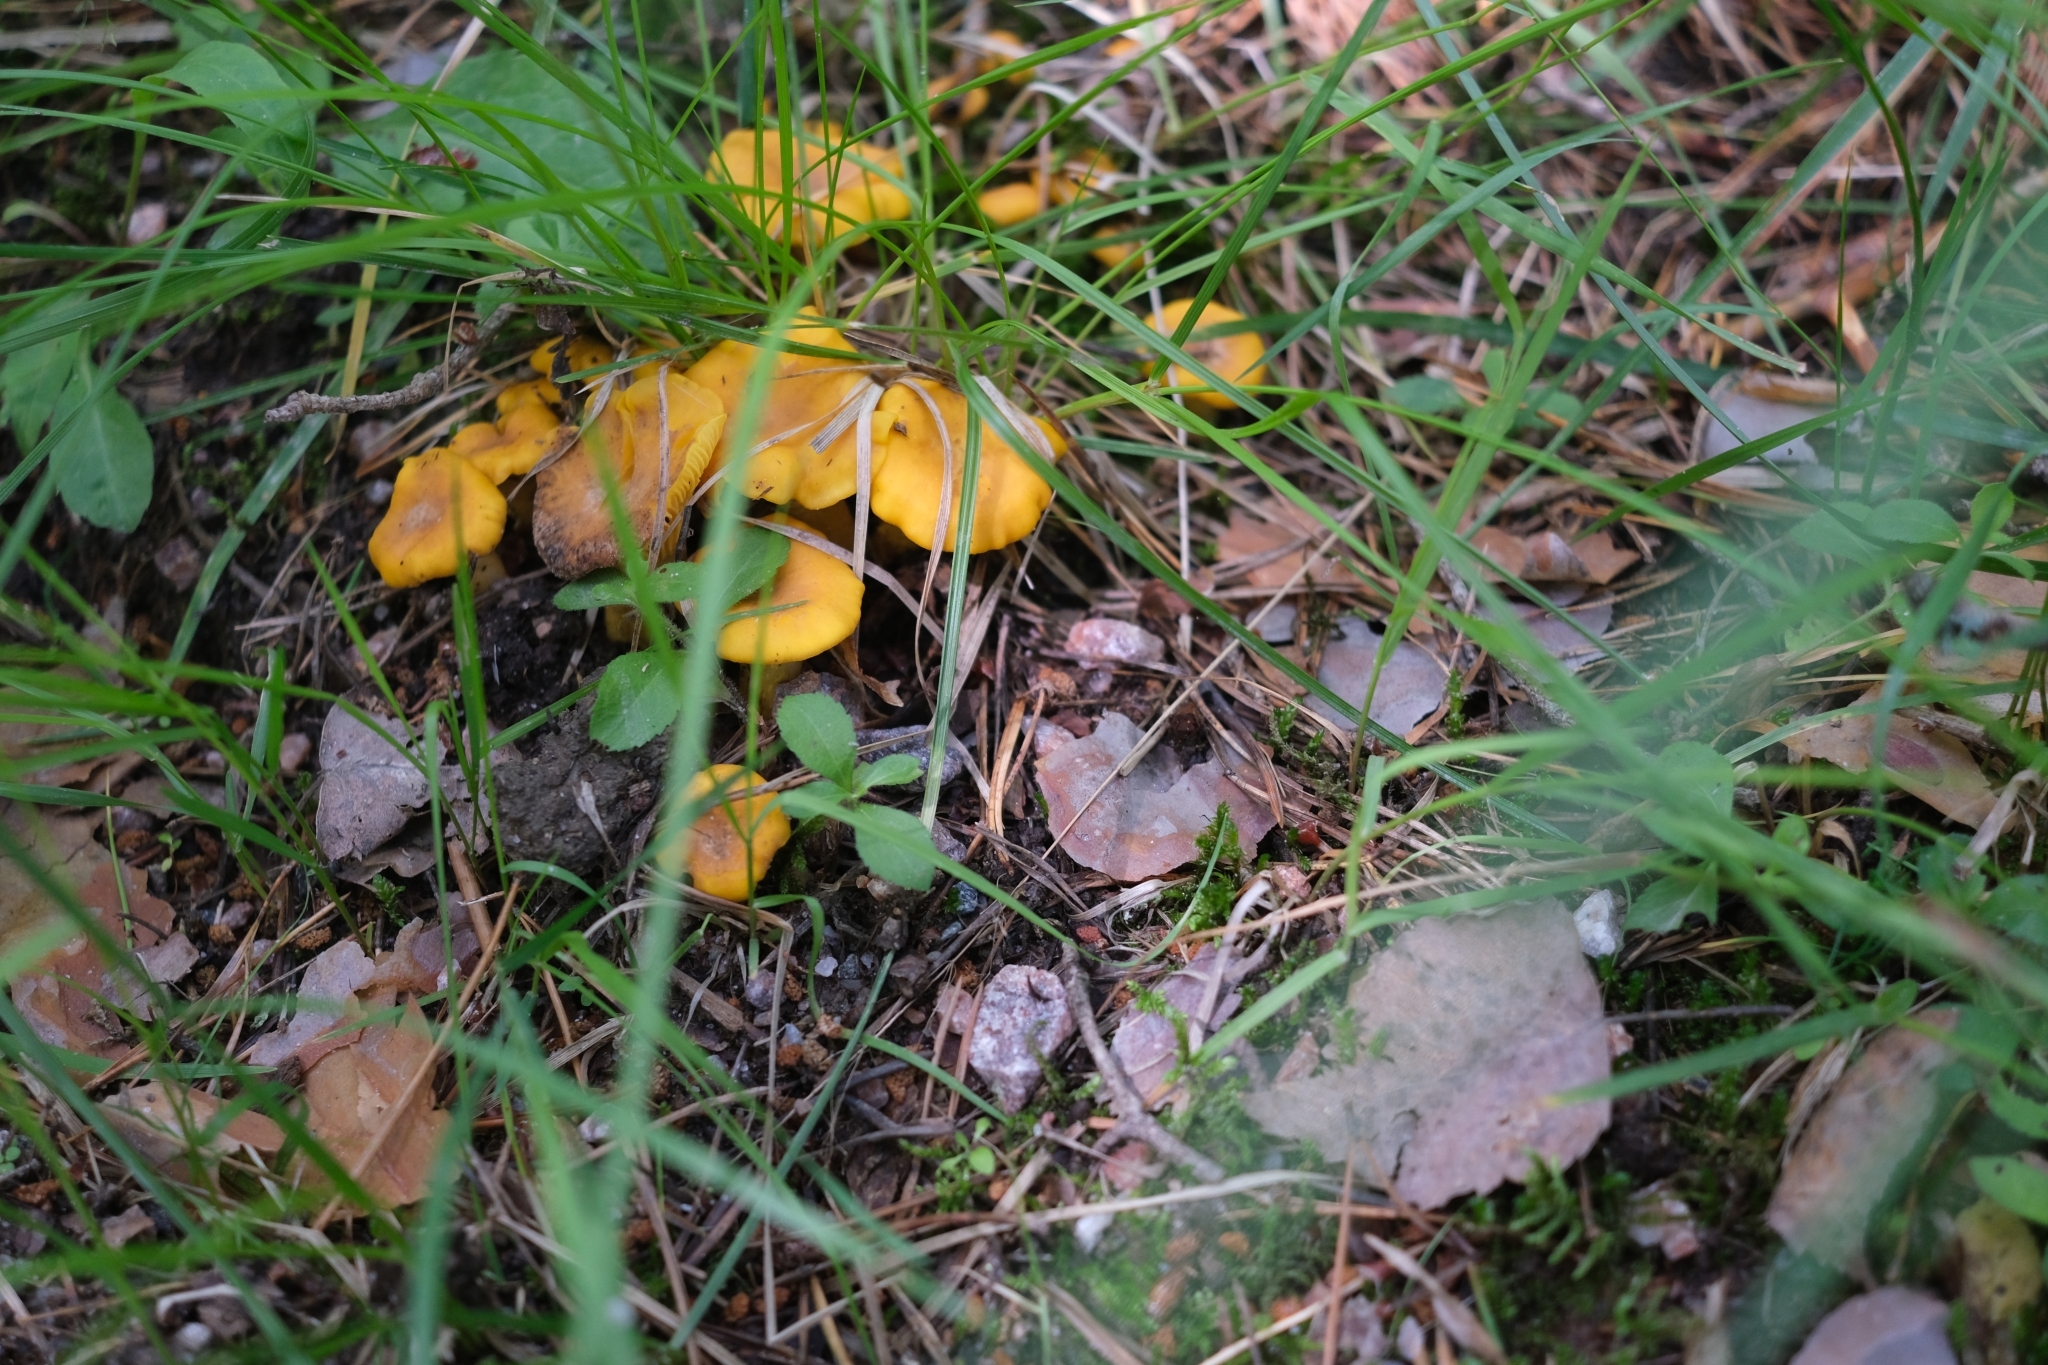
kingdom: Fungi
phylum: Basidiomycota
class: Agaricomycetes
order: Cantharellales
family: Hydnaceae
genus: Cantharellus
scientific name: Cantharellus cibarius
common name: Chanterelle
